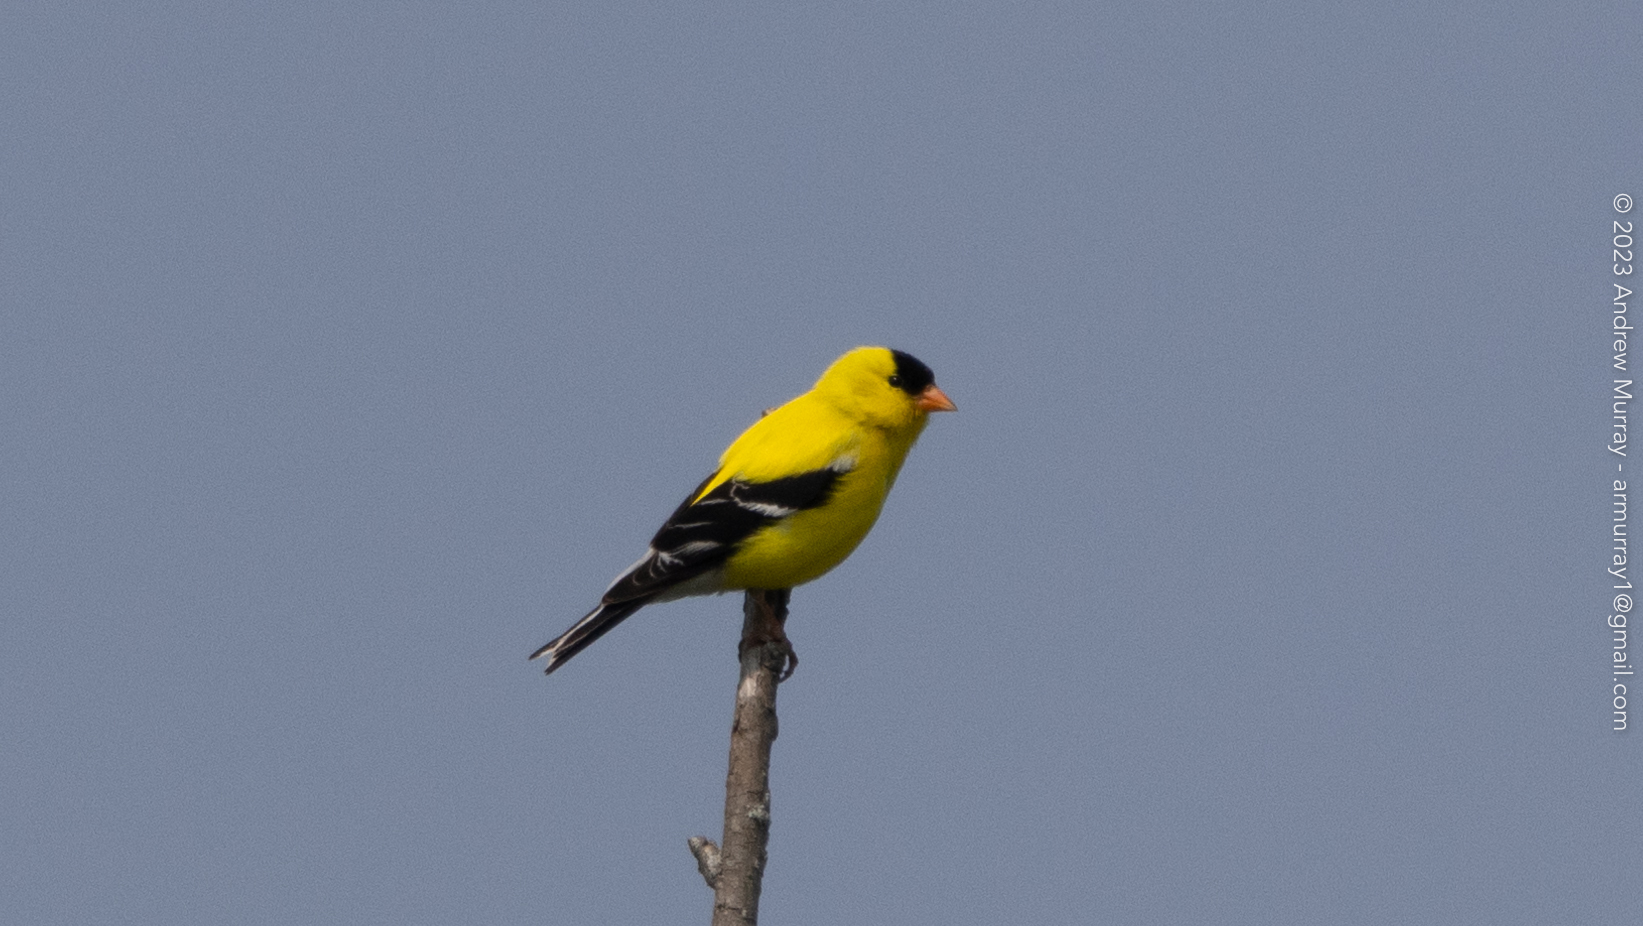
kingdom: Animalia
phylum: Chordata
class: Aves
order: Passeriformes
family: Fringillidae
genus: Spinus
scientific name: Spinus tristis
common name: American goldfinch
